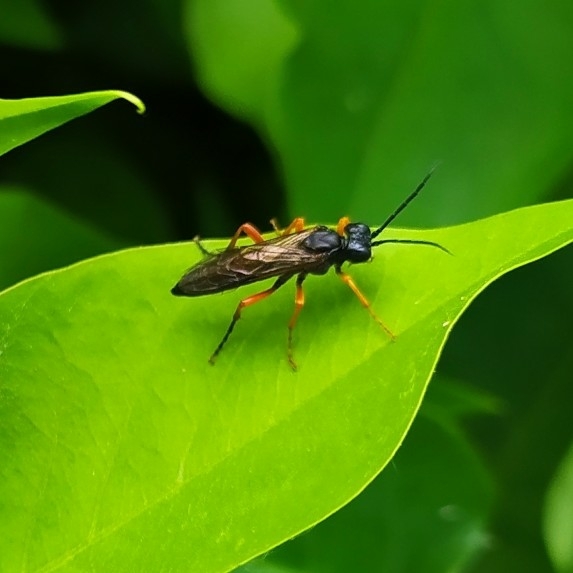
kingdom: Animalia
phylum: Arthropoda
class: Insecta
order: Hymenoptera
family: Tenthredinidae
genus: Tenthredo
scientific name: Tenthredo atra
